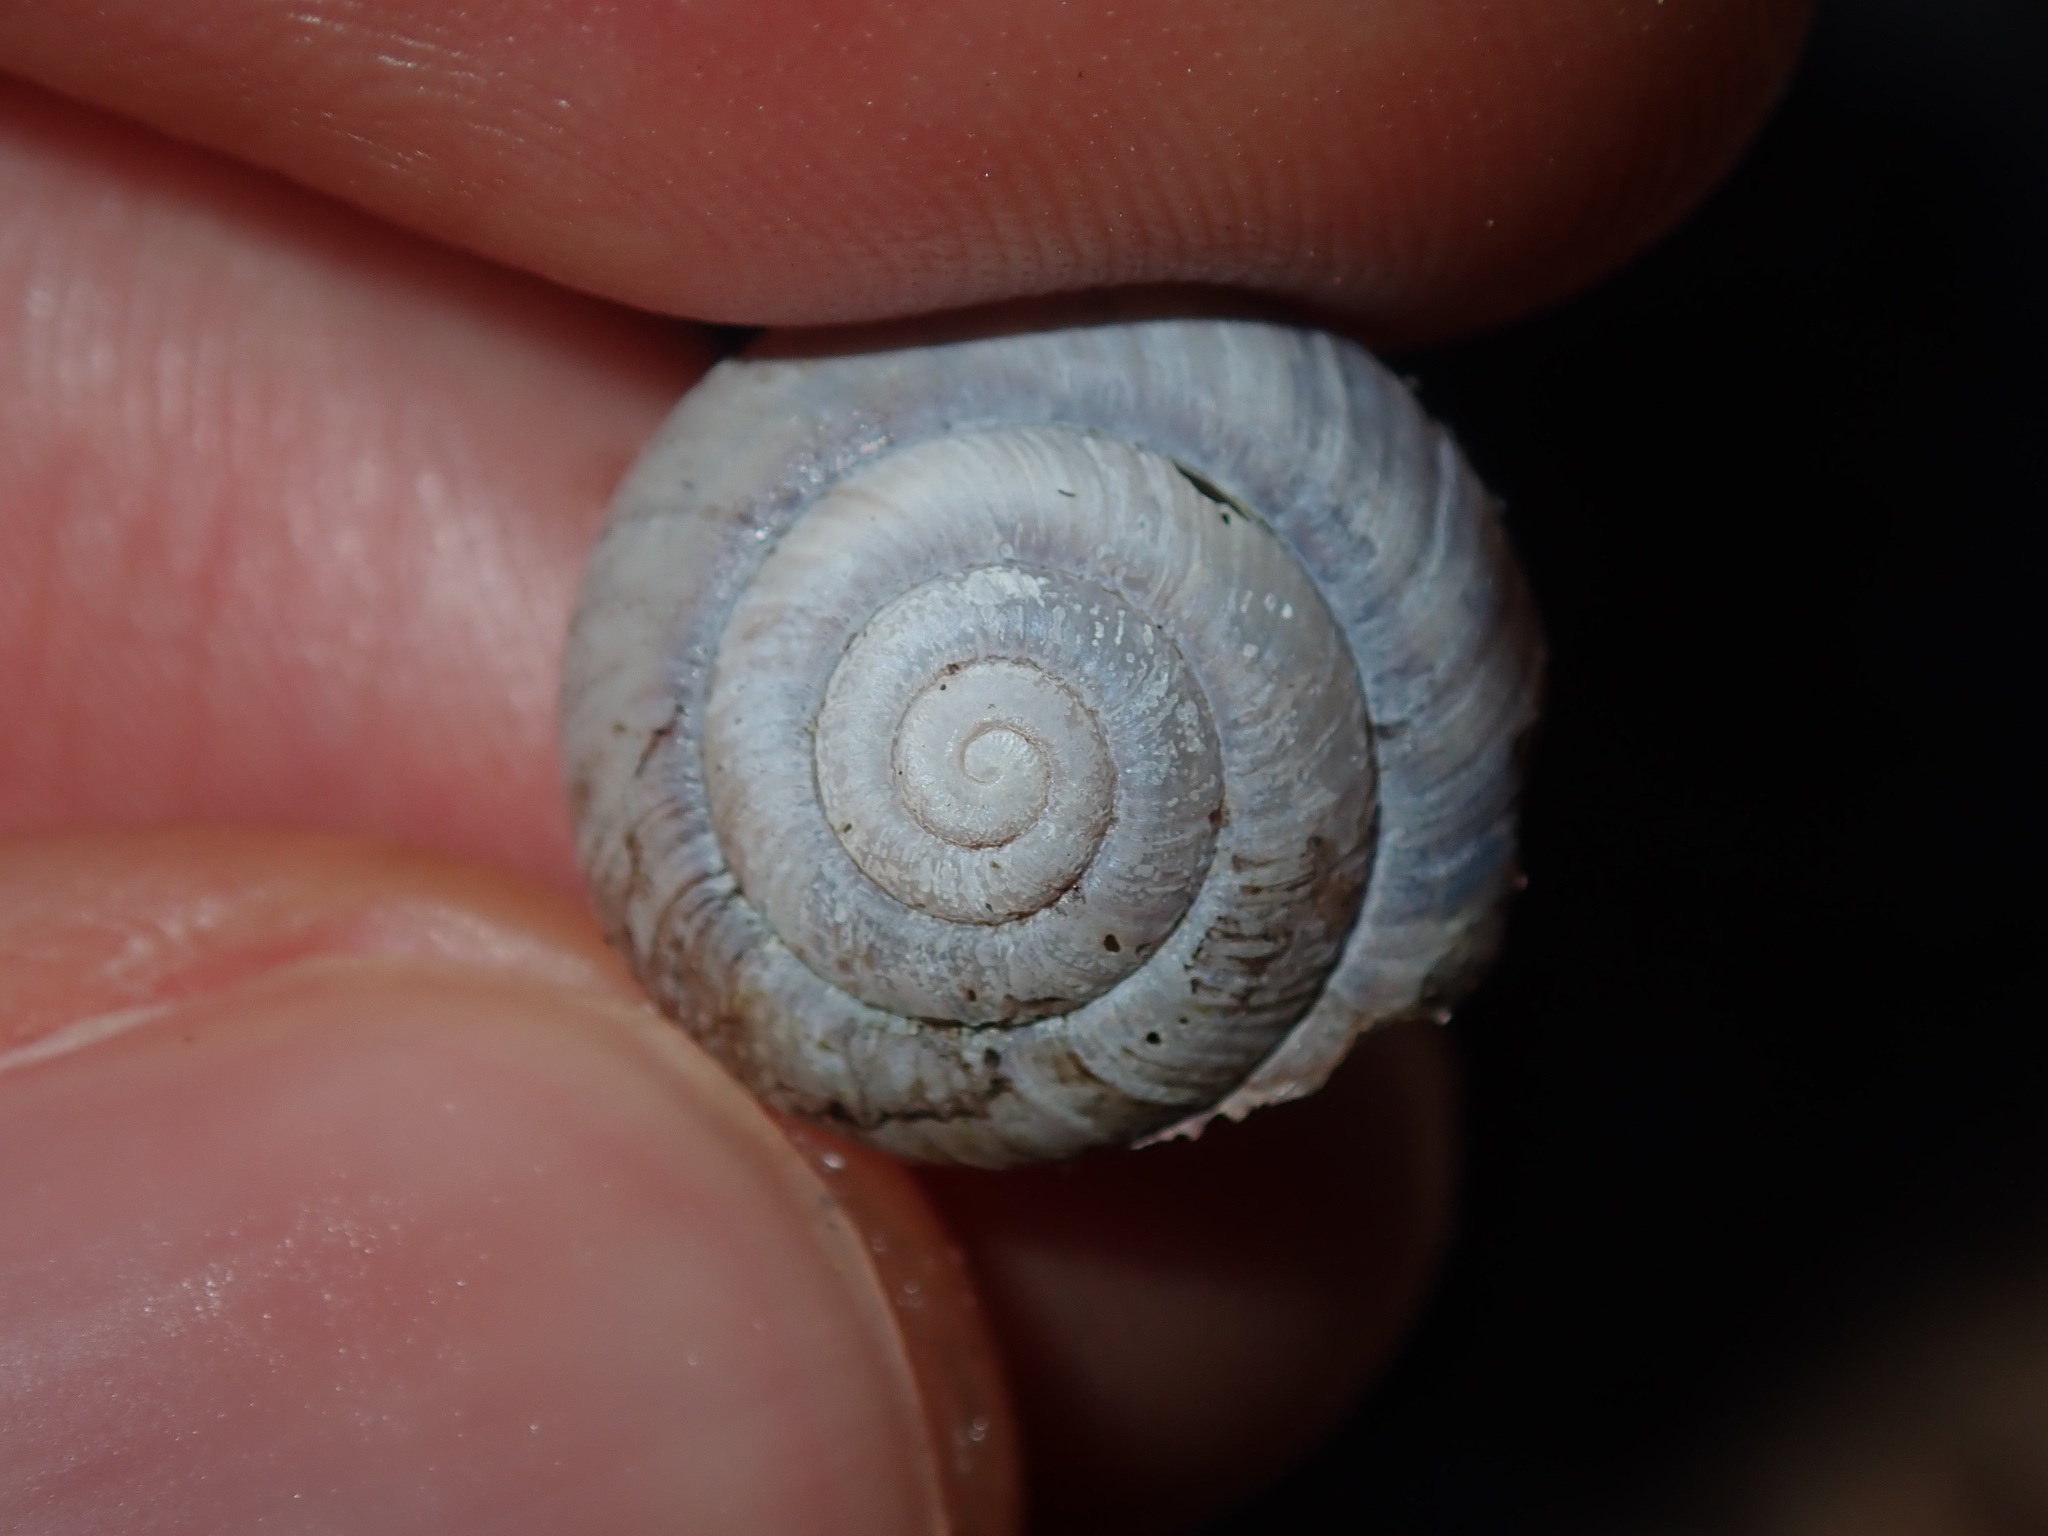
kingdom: Animalia
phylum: Mollusca
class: Gastropoda
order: Stylommatophora
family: Camaenidae
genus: Galadistes
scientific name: Galadistes akubra
